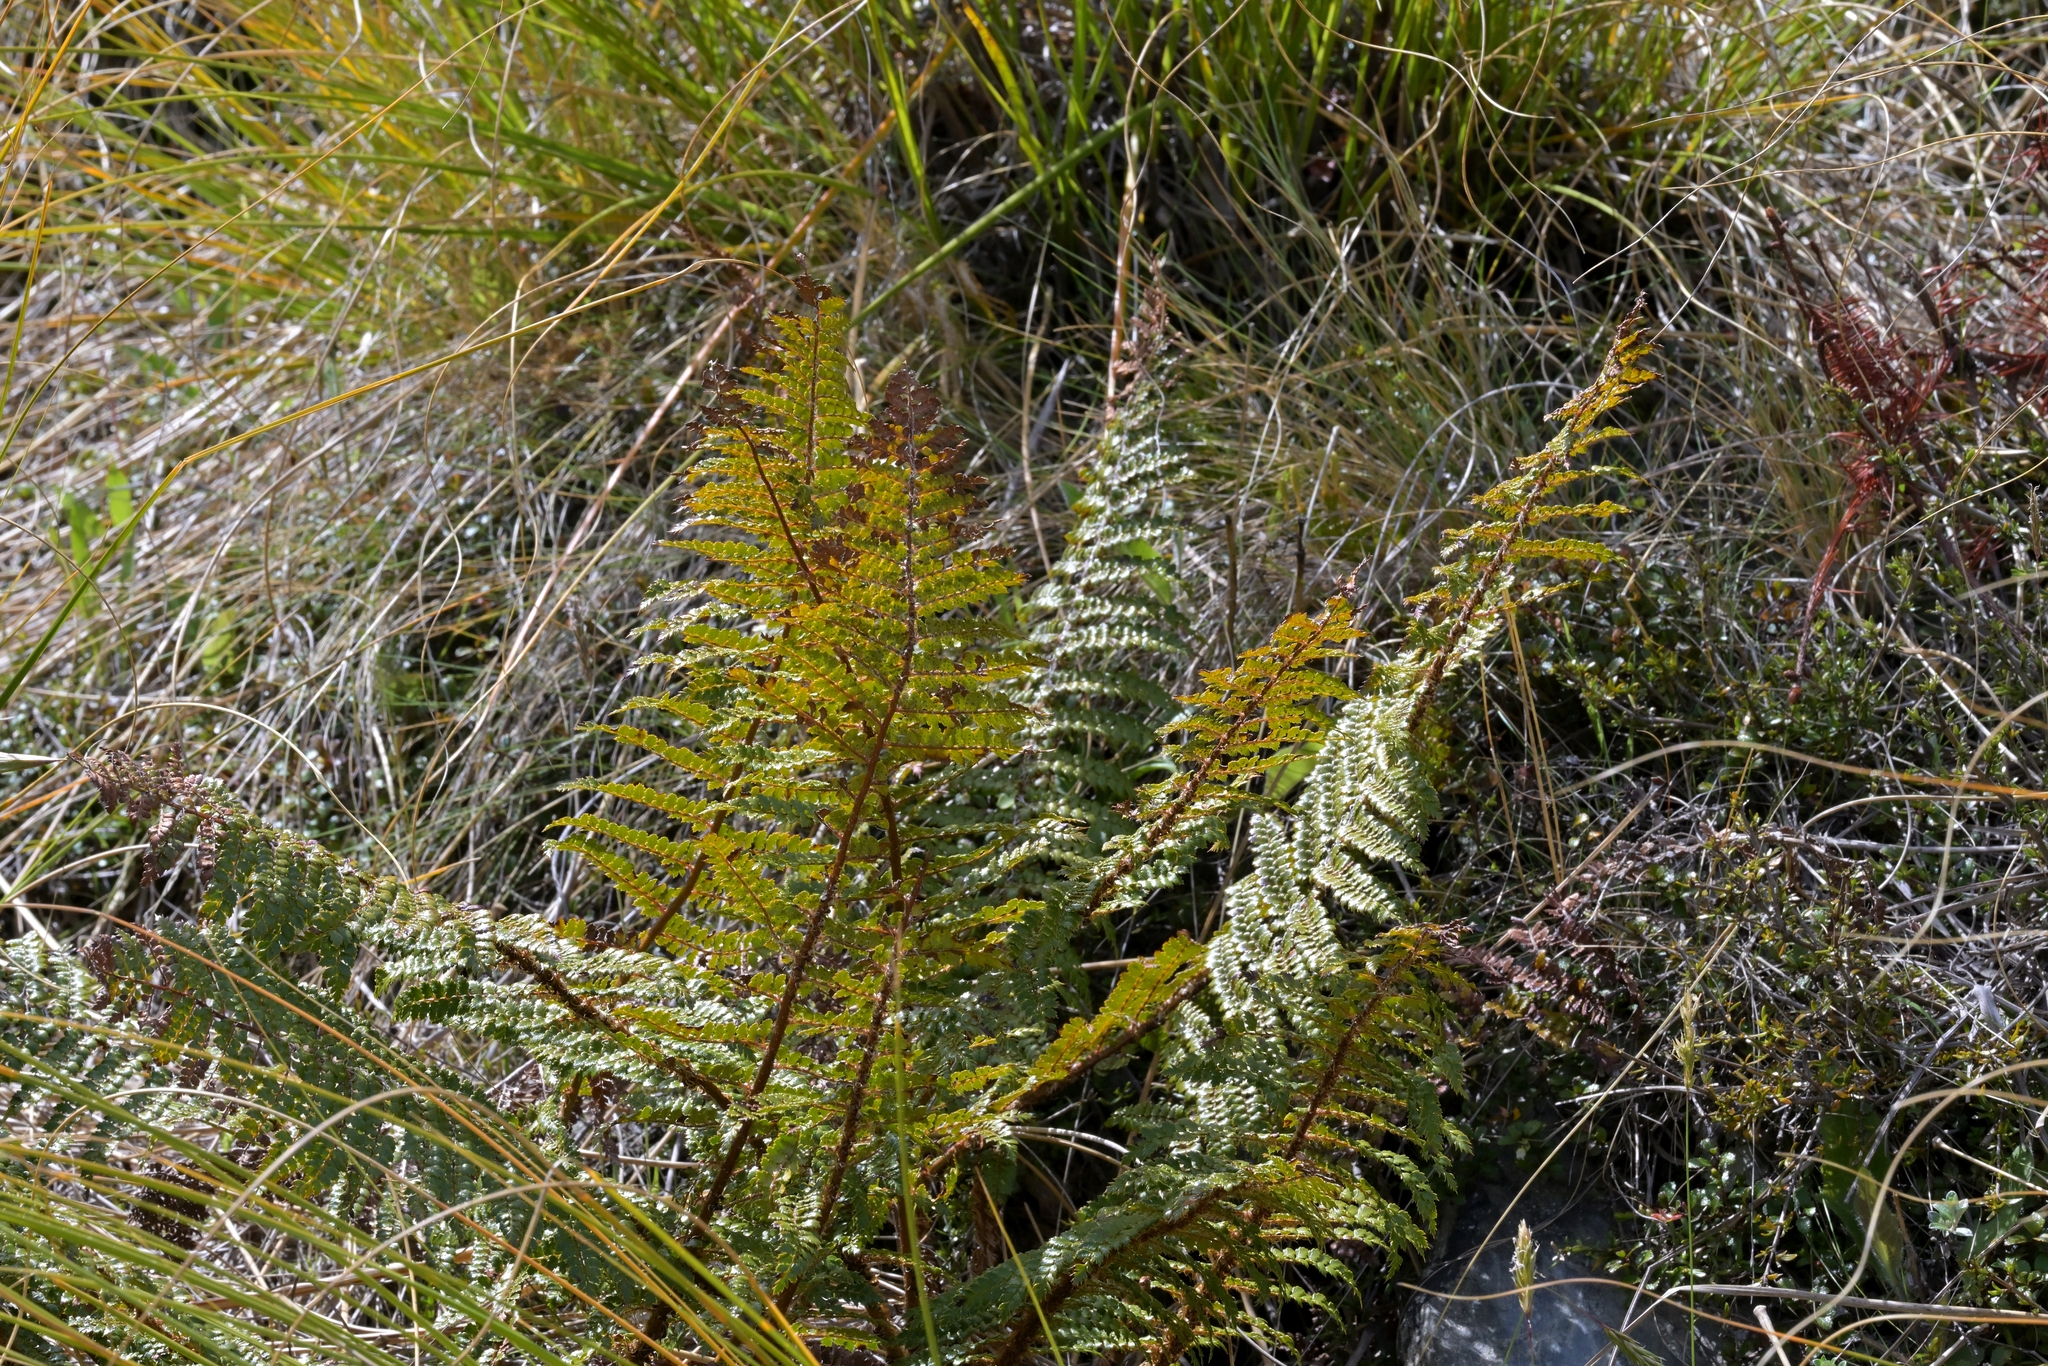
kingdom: Plantae
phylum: Tracheophyta
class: Polypodiopsida
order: Polypodiales
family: Dryopteridaceae
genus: Polystichum
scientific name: Polystichum vestitum
